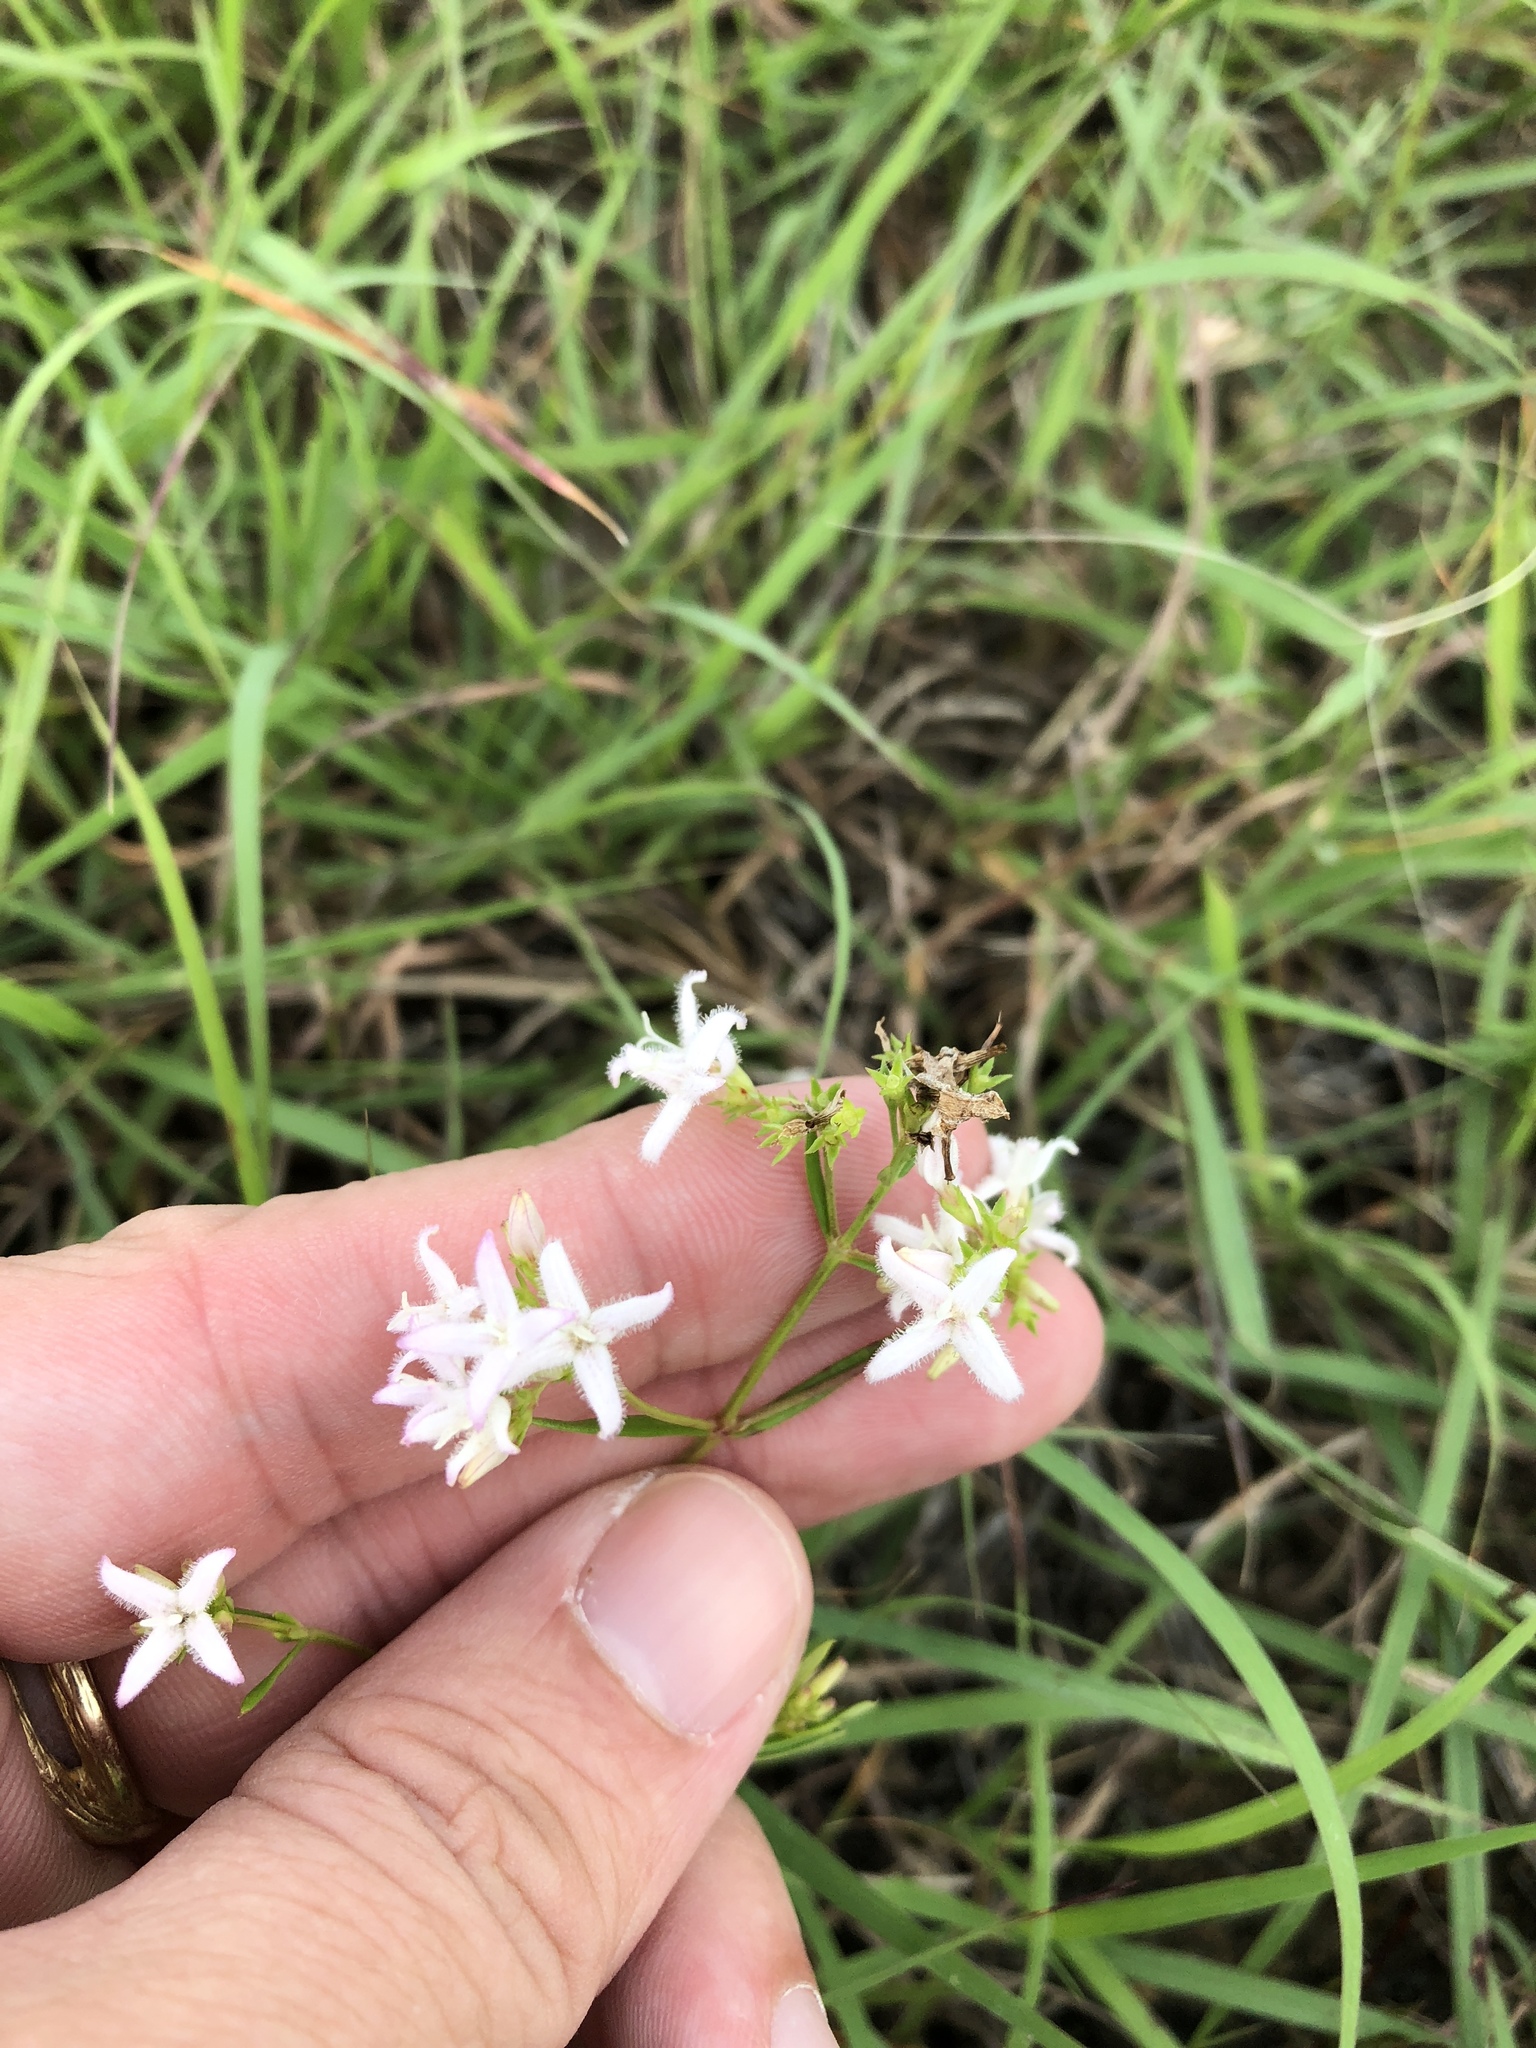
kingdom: Plantae
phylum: Tracheophyta
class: Magnoliopsida
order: Gentianales
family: Rubiaceae
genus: Stenaria
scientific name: Stenaria nigricans
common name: Diamondflowers
